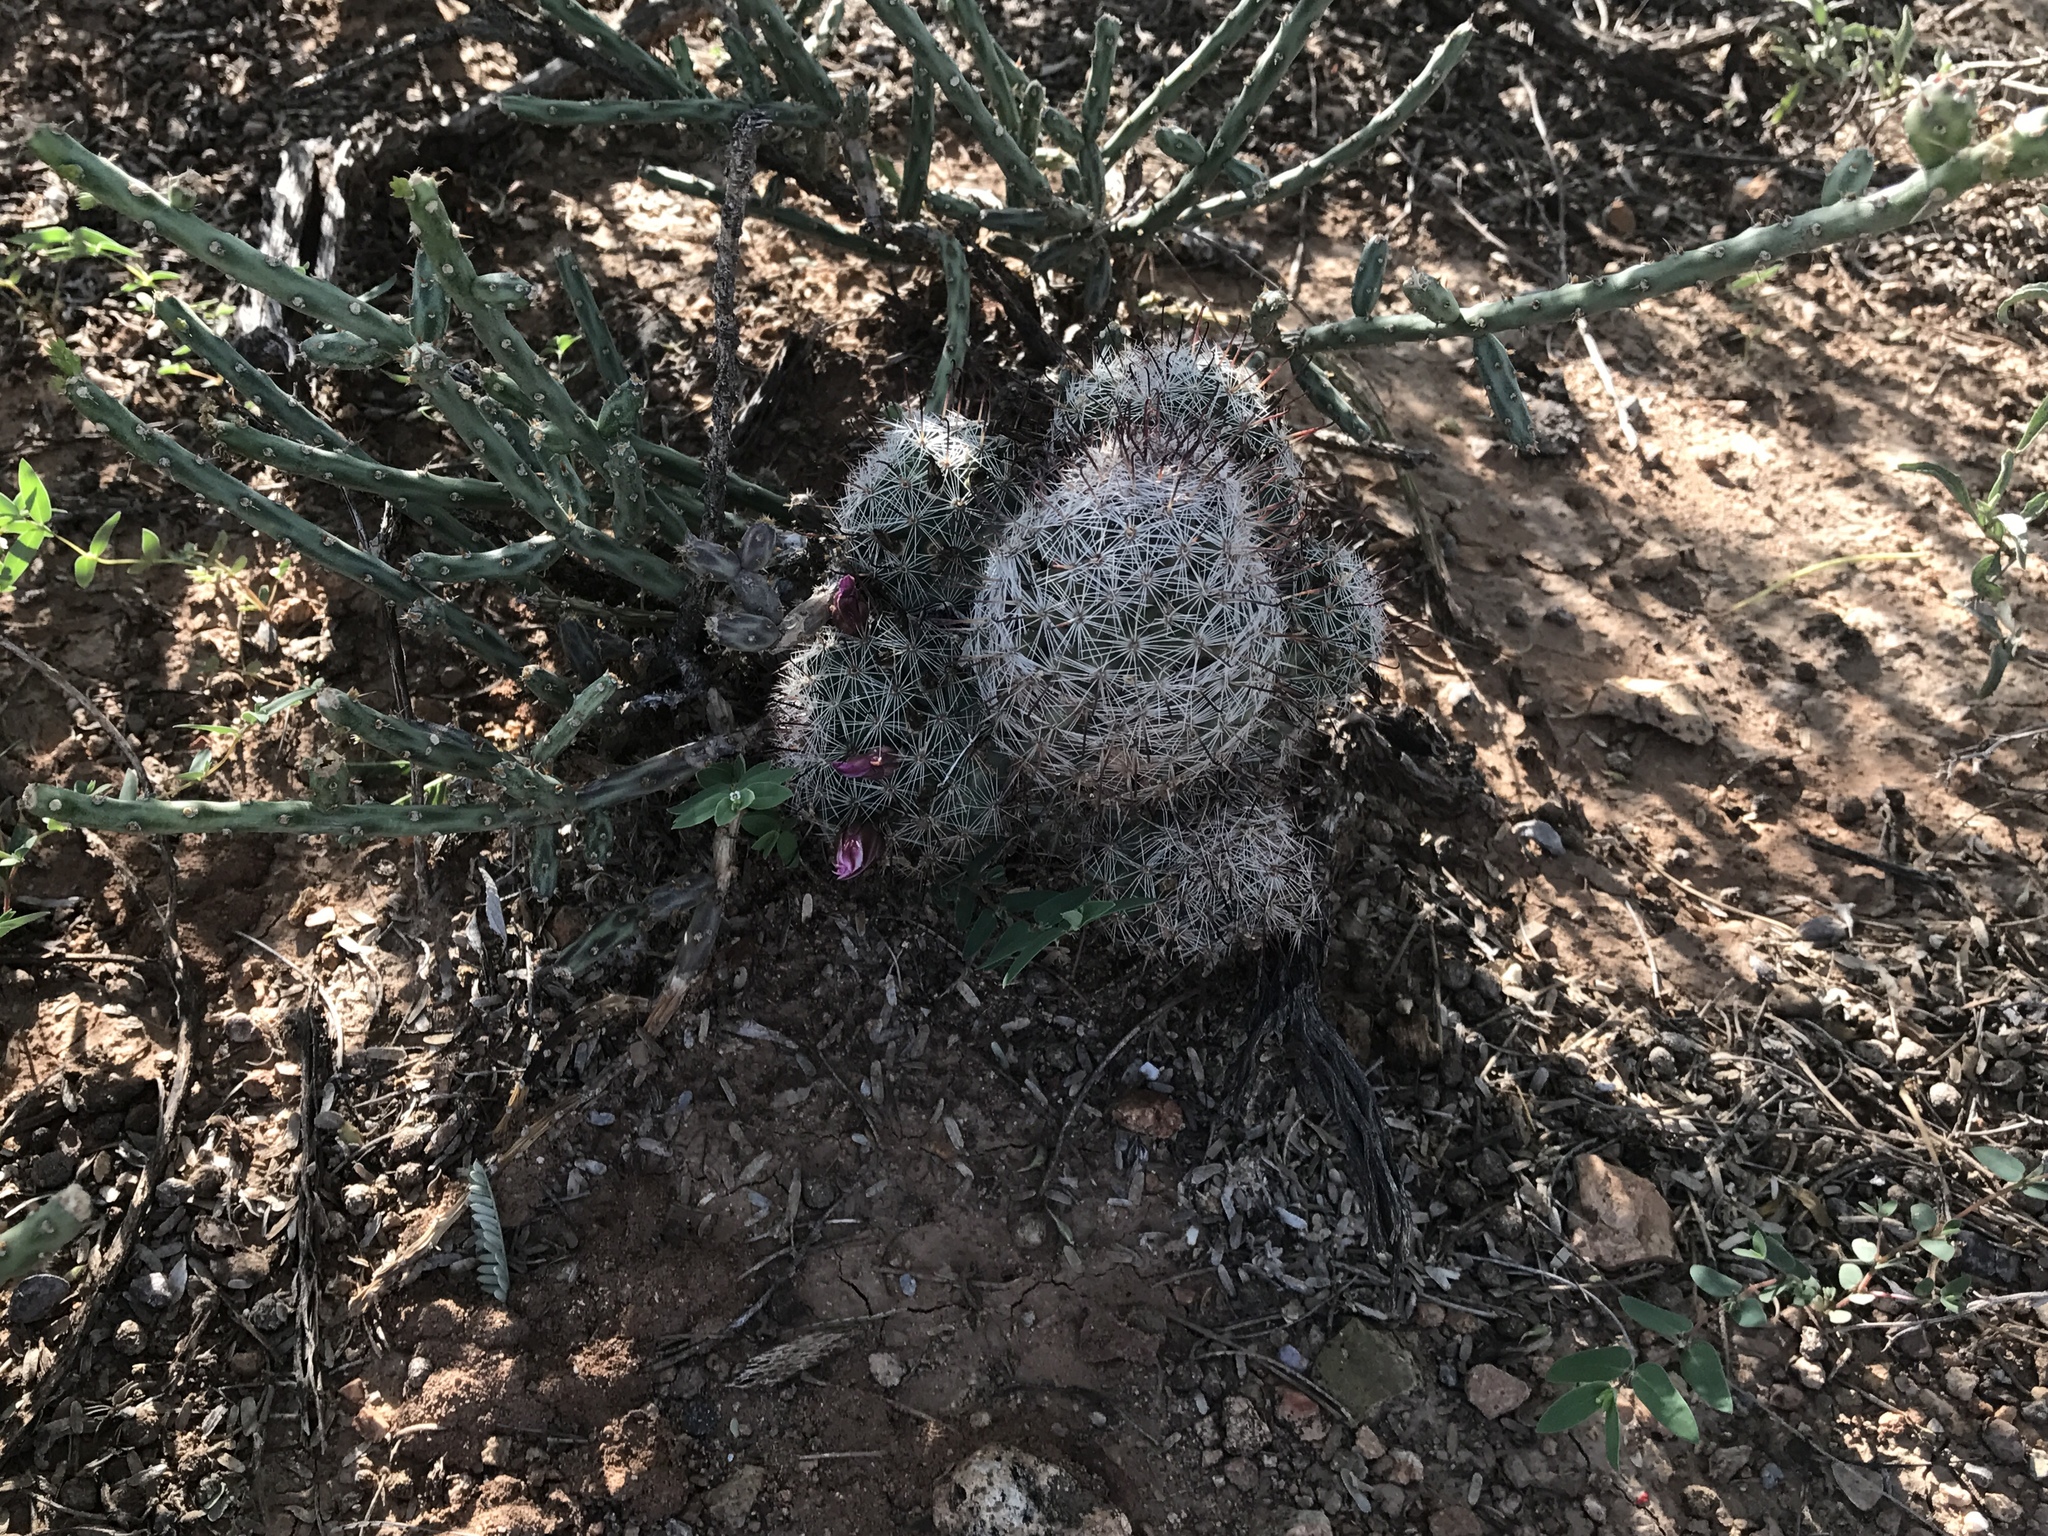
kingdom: Plantae
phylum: Tracheophyta
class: Magnoliopsida
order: Caryophyllales
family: Cactaceae
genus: Cochemiea
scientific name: Cochemiea grahamii
